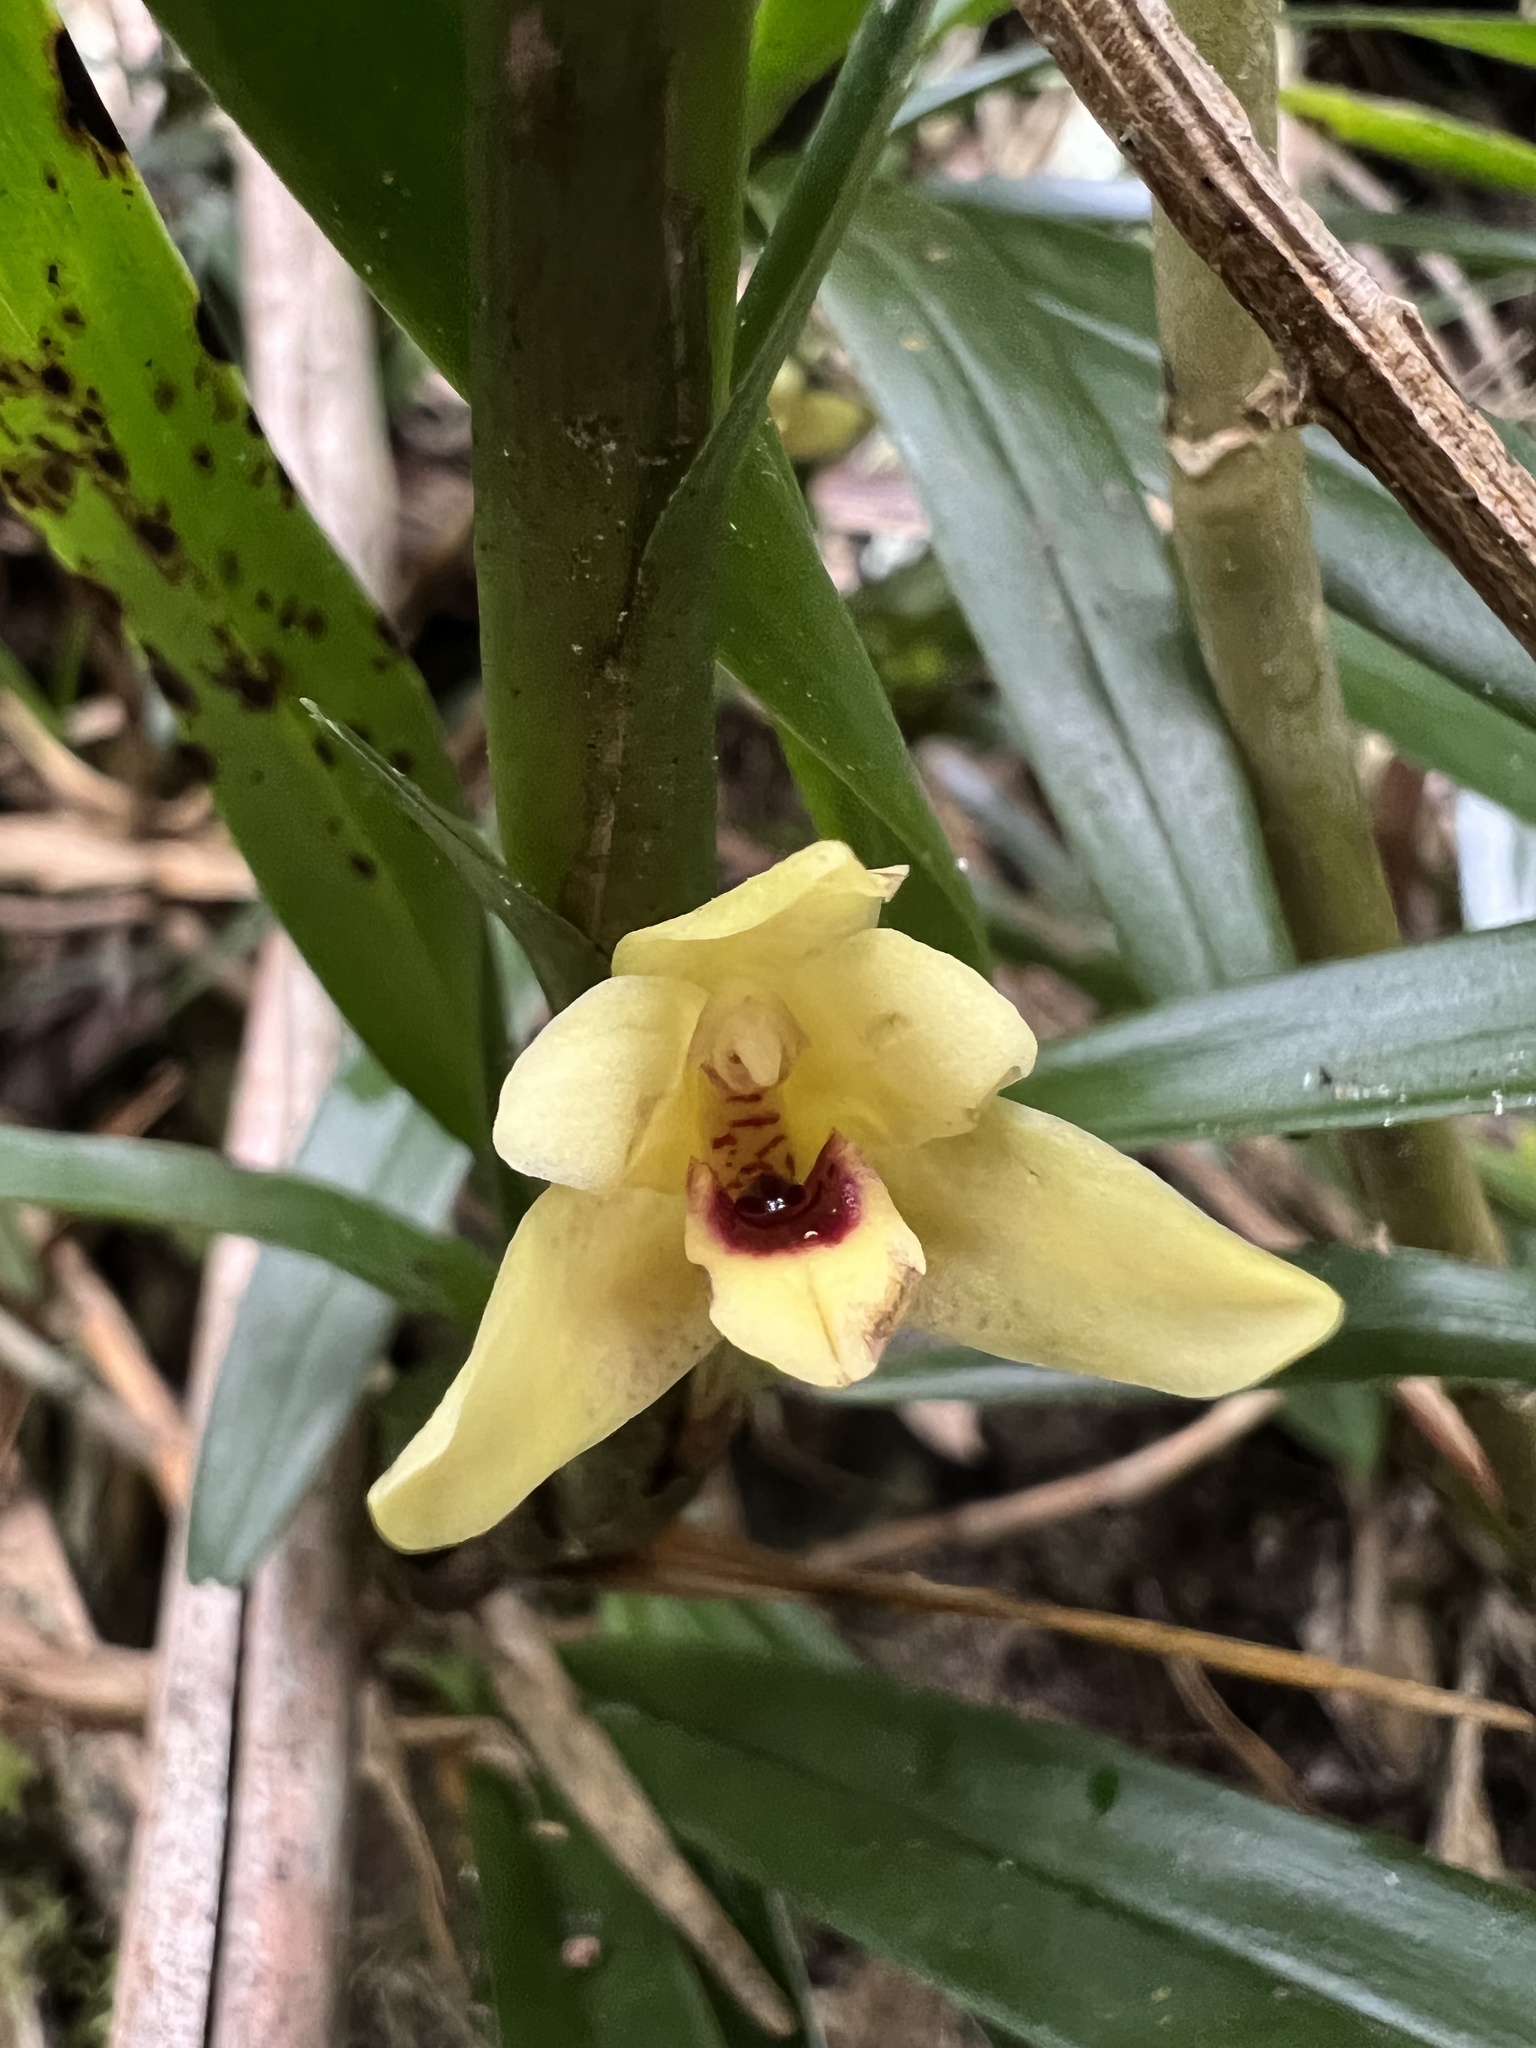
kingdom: Plantae
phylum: Tracheophyta
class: Liliopsida
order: Asparagales
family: Orchidaceae
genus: Maxillaria
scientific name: Maxillaria ponerantha
